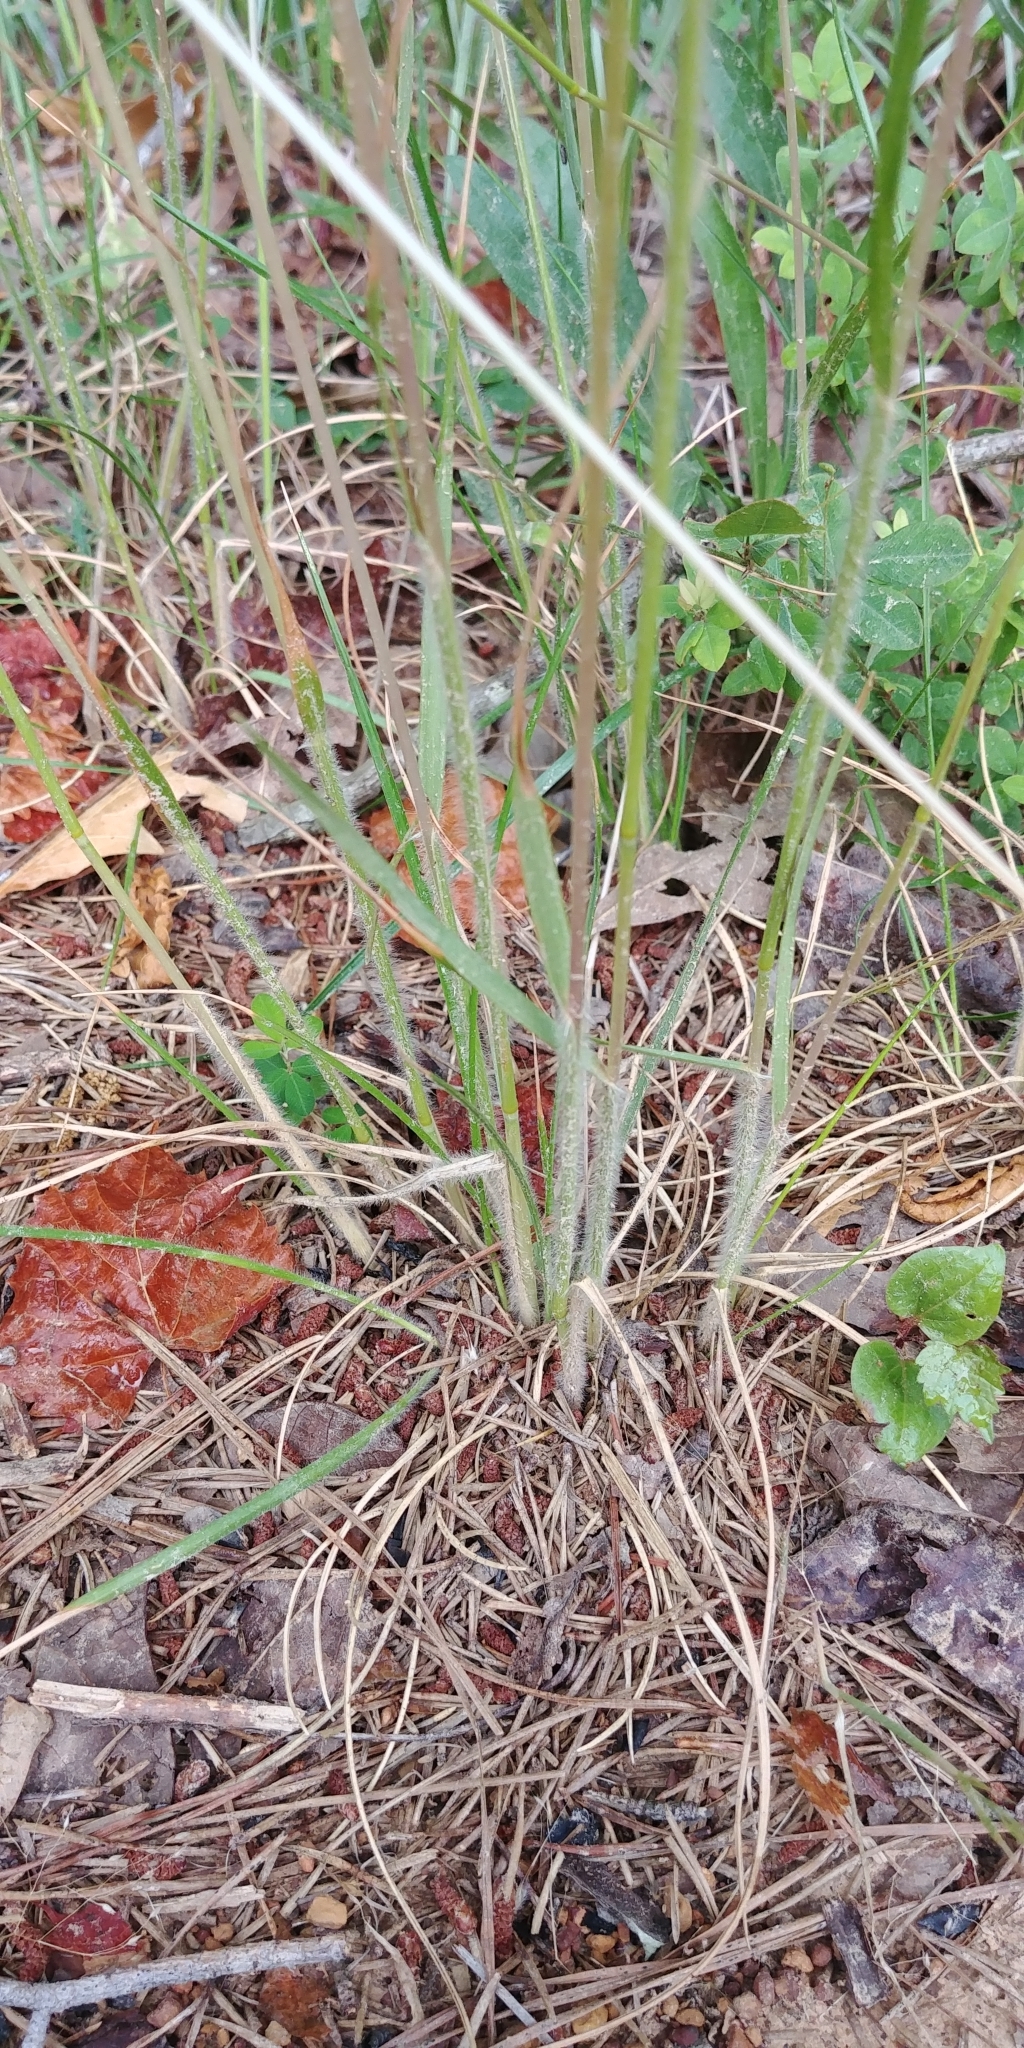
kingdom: Plantae
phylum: Tracheophyta
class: Liliopsida
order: Poales
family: Poaceae
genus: Danthonia
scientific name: Danthonia sericea
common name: Downy danthonia
